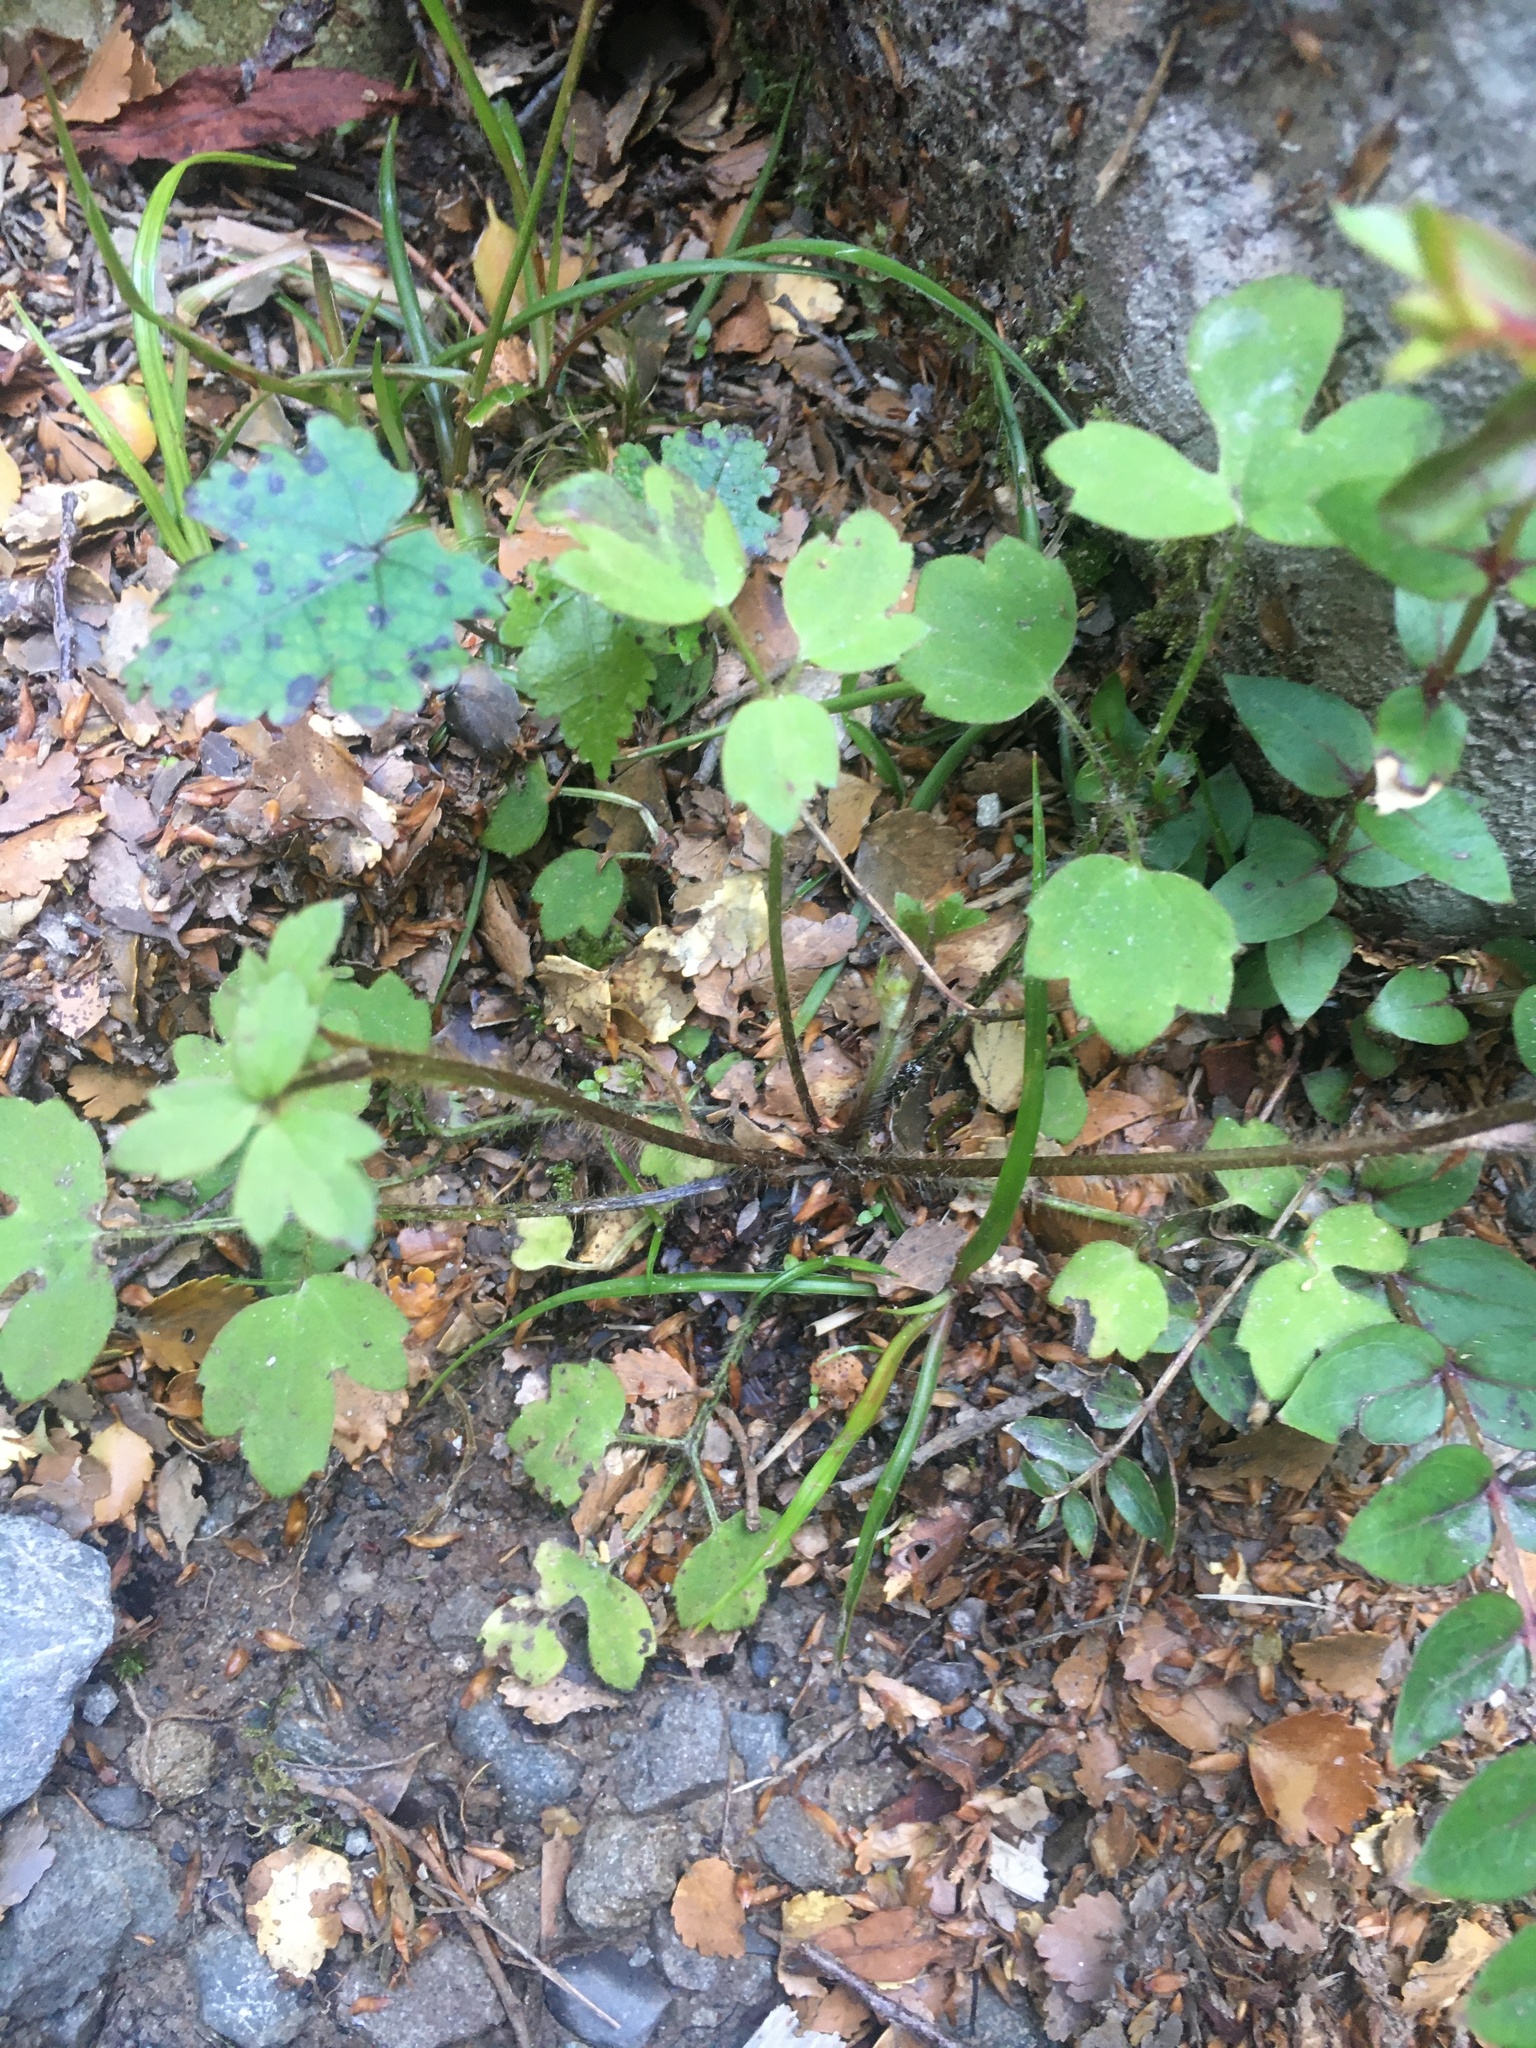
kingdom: Plantae
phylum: Tracheophyta
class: Magnoliopsida
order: Ranunculales
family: Ranunculaceae
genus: Ranunculus
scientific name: Ranunculus reflexus
